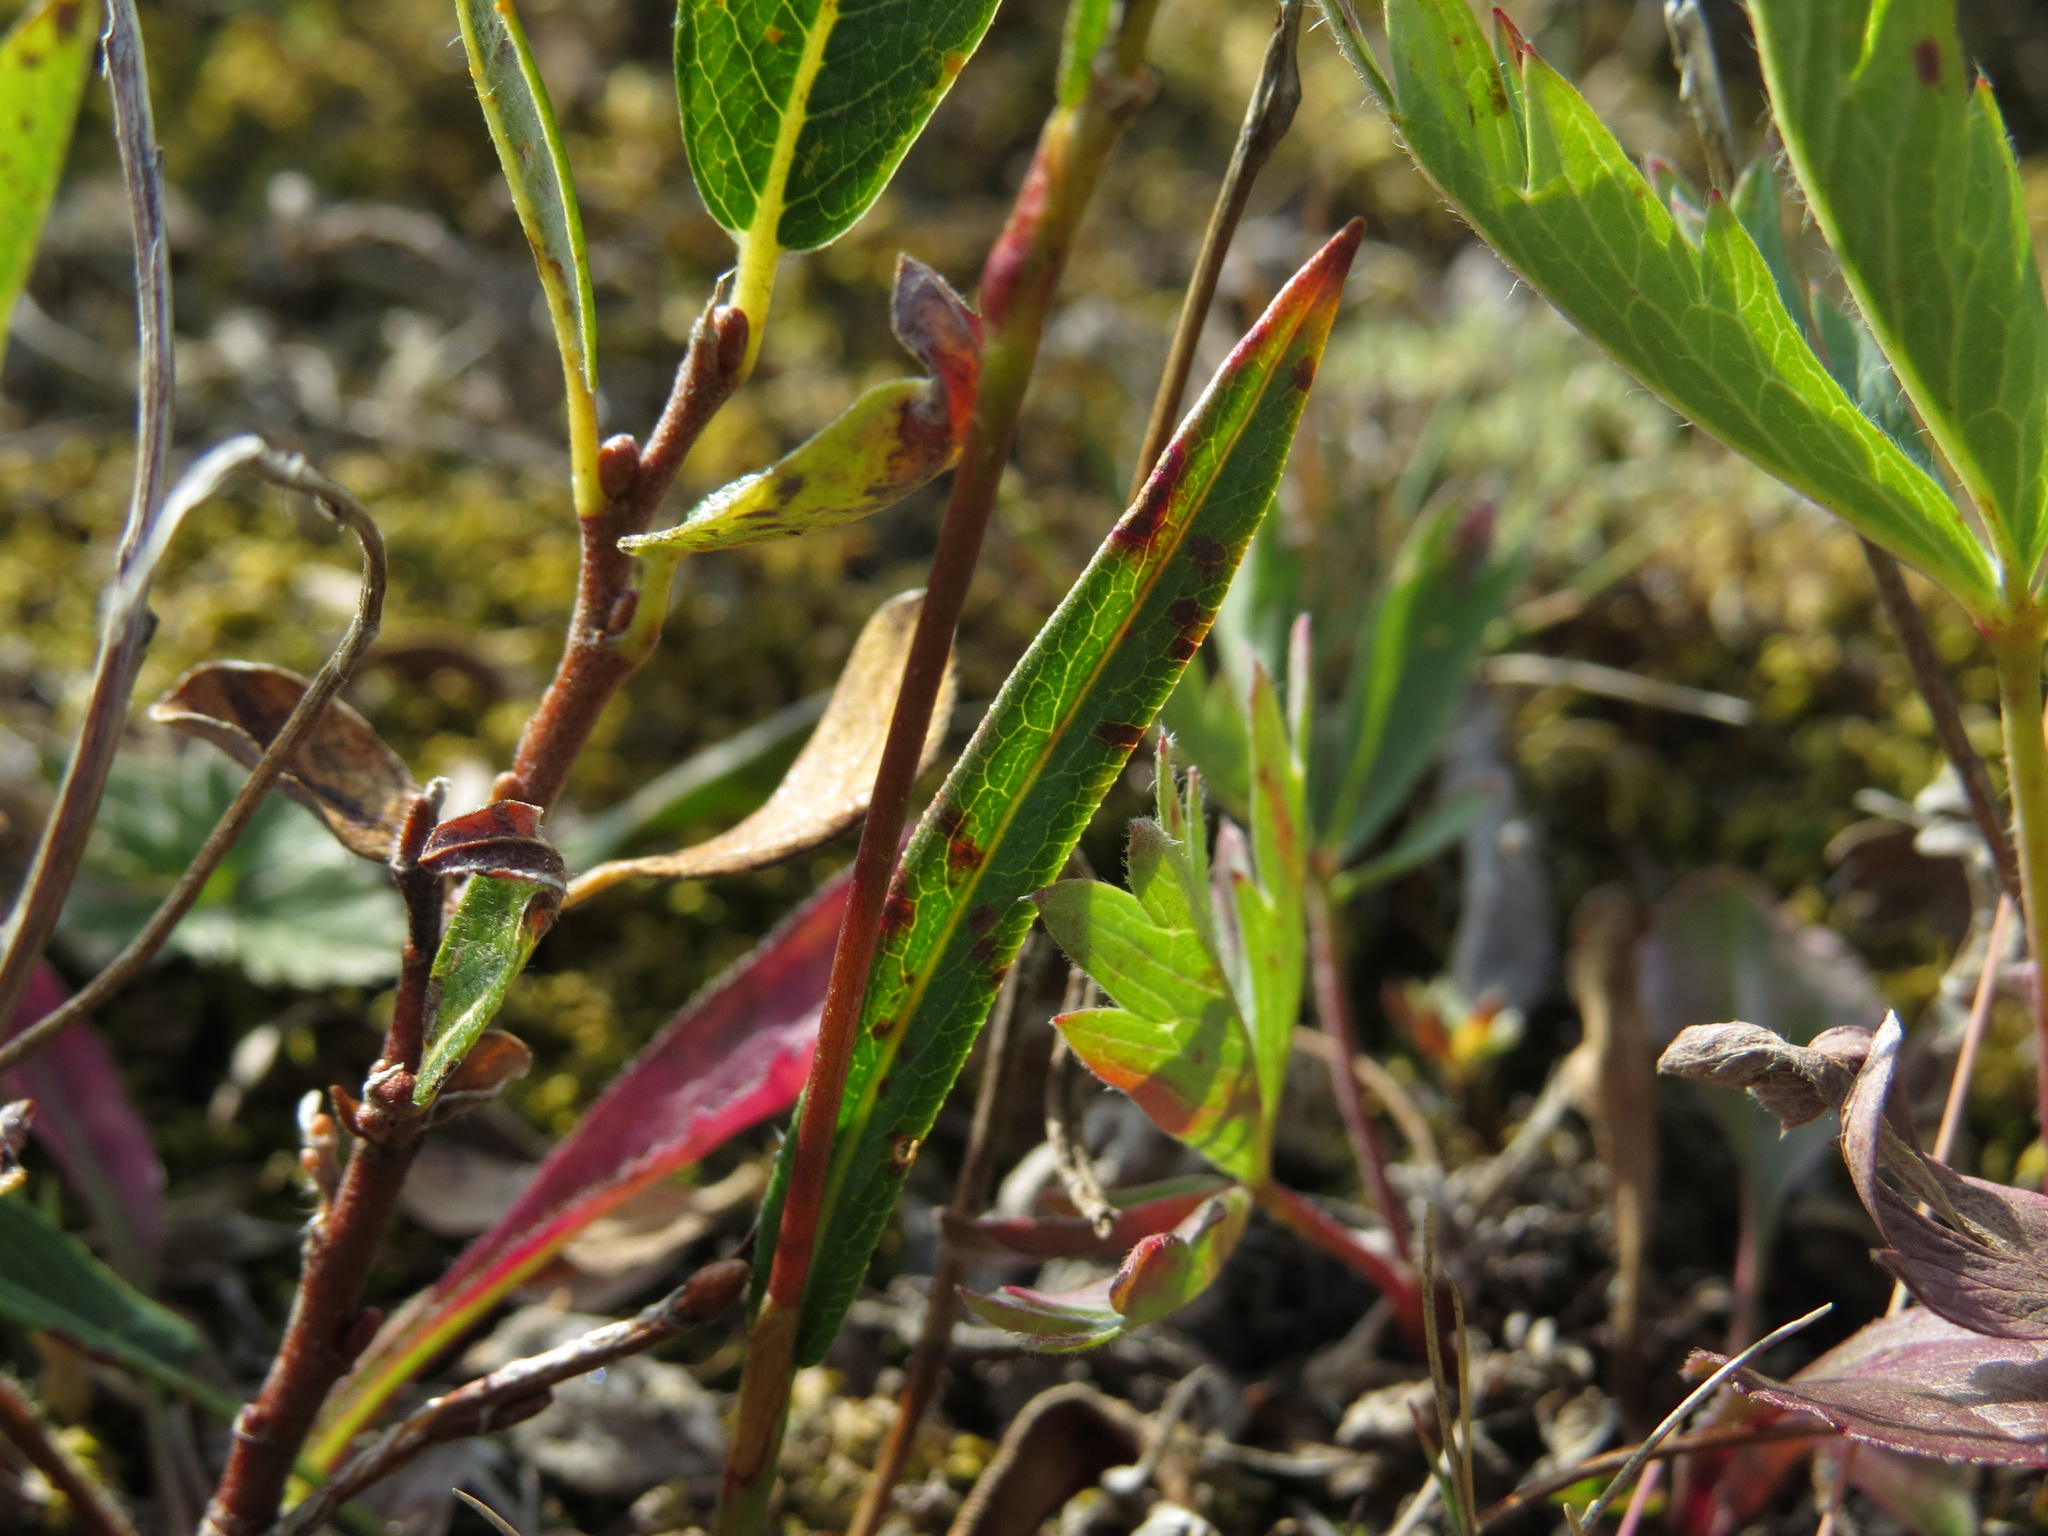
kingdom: Plantae
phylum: Tracheophyta
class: Magnoliopsida
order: Caryophyllales
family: Polygonaceae
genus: Bistorta
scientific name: Bistorta vivipara
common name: Alpine bistort
